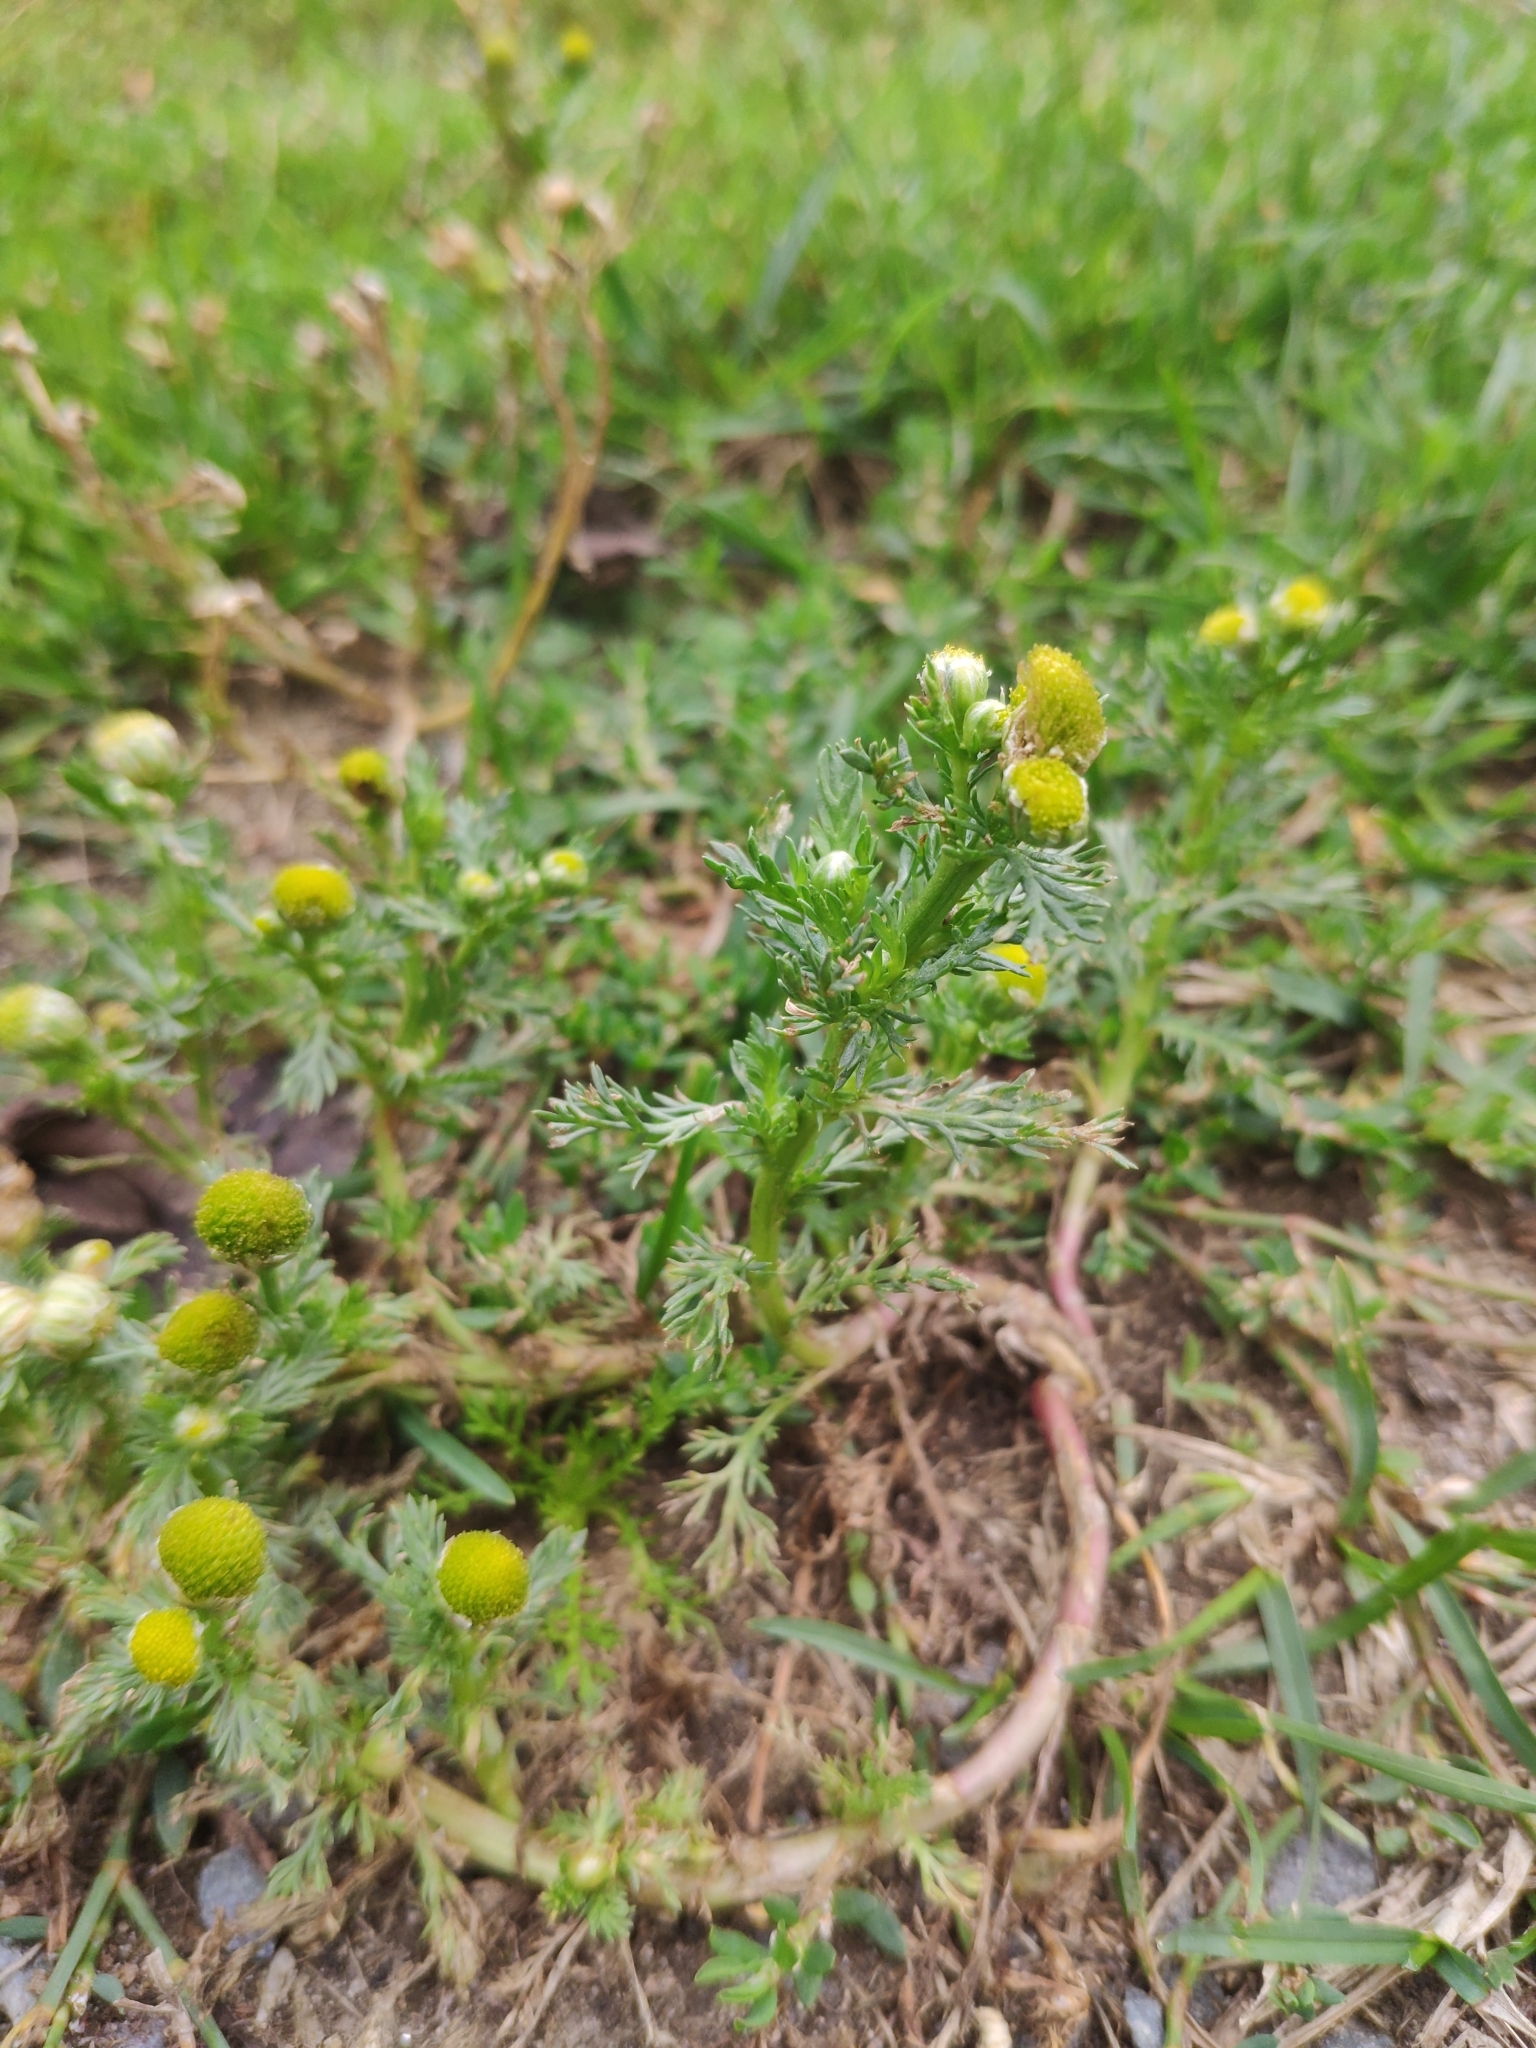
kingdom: Plantae
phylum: Tracheophyta
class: Magnoliopsida
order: Asterales
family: Asteraceae
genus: Matricaria
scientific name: Matricaria discoidea
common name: Disc mayweed
